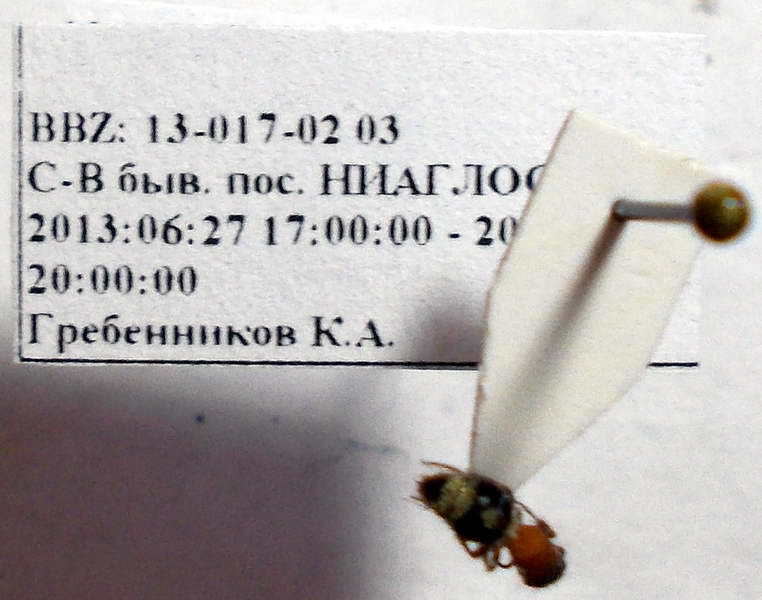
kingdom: Animalia
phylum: Arthropoda
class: Insecta
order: Hymenoptera
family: Mutillidae
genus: Smicromyrme
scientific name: Smicromyrme rufipes
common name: Small velvet ant
